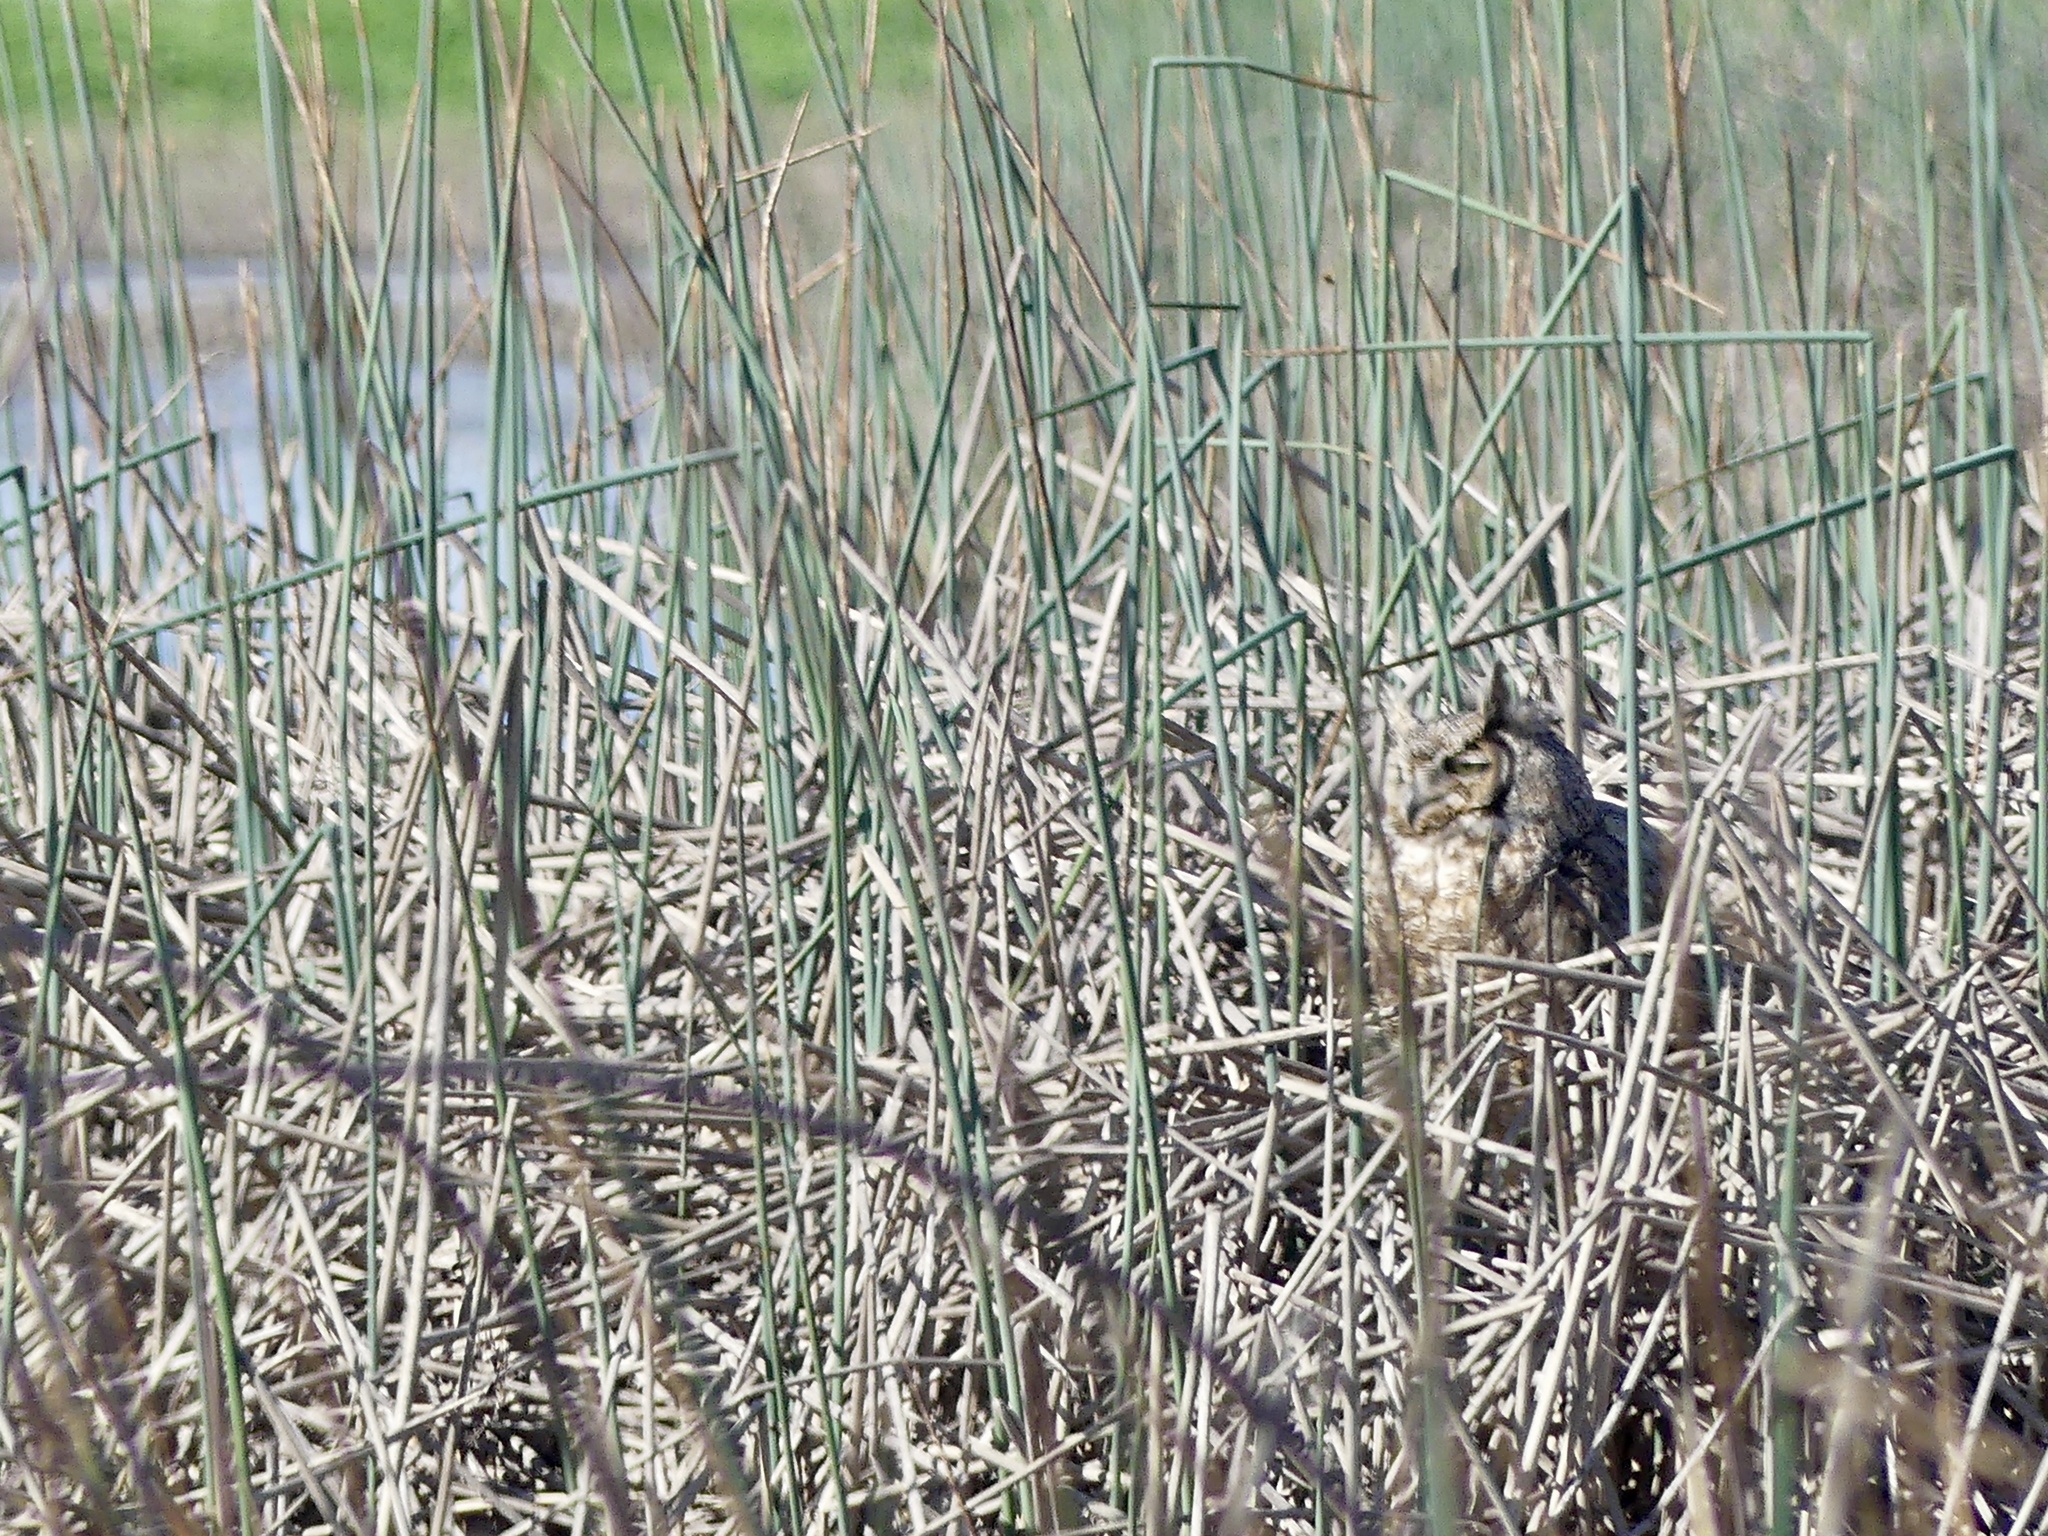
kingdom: Animalia
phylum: Chordata
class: Aves
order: Strigiformes
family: Strigidae
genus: Bubo
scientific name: Bubo virginianus
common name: Great horned owl
